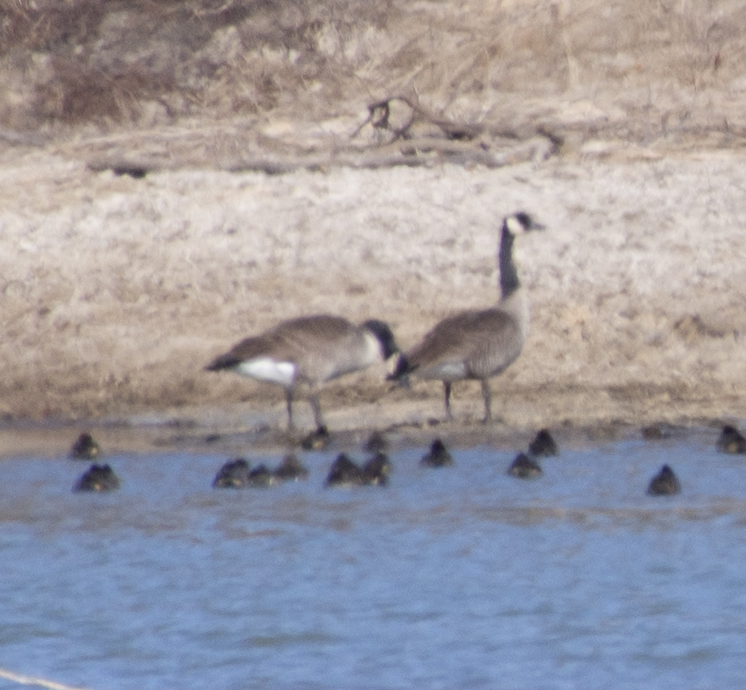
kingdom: Animalia
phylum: Chordata
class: Aves
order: Anseriformes
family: Anatidae
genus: Branta
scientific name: Branta canadensis
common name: Canada goose
